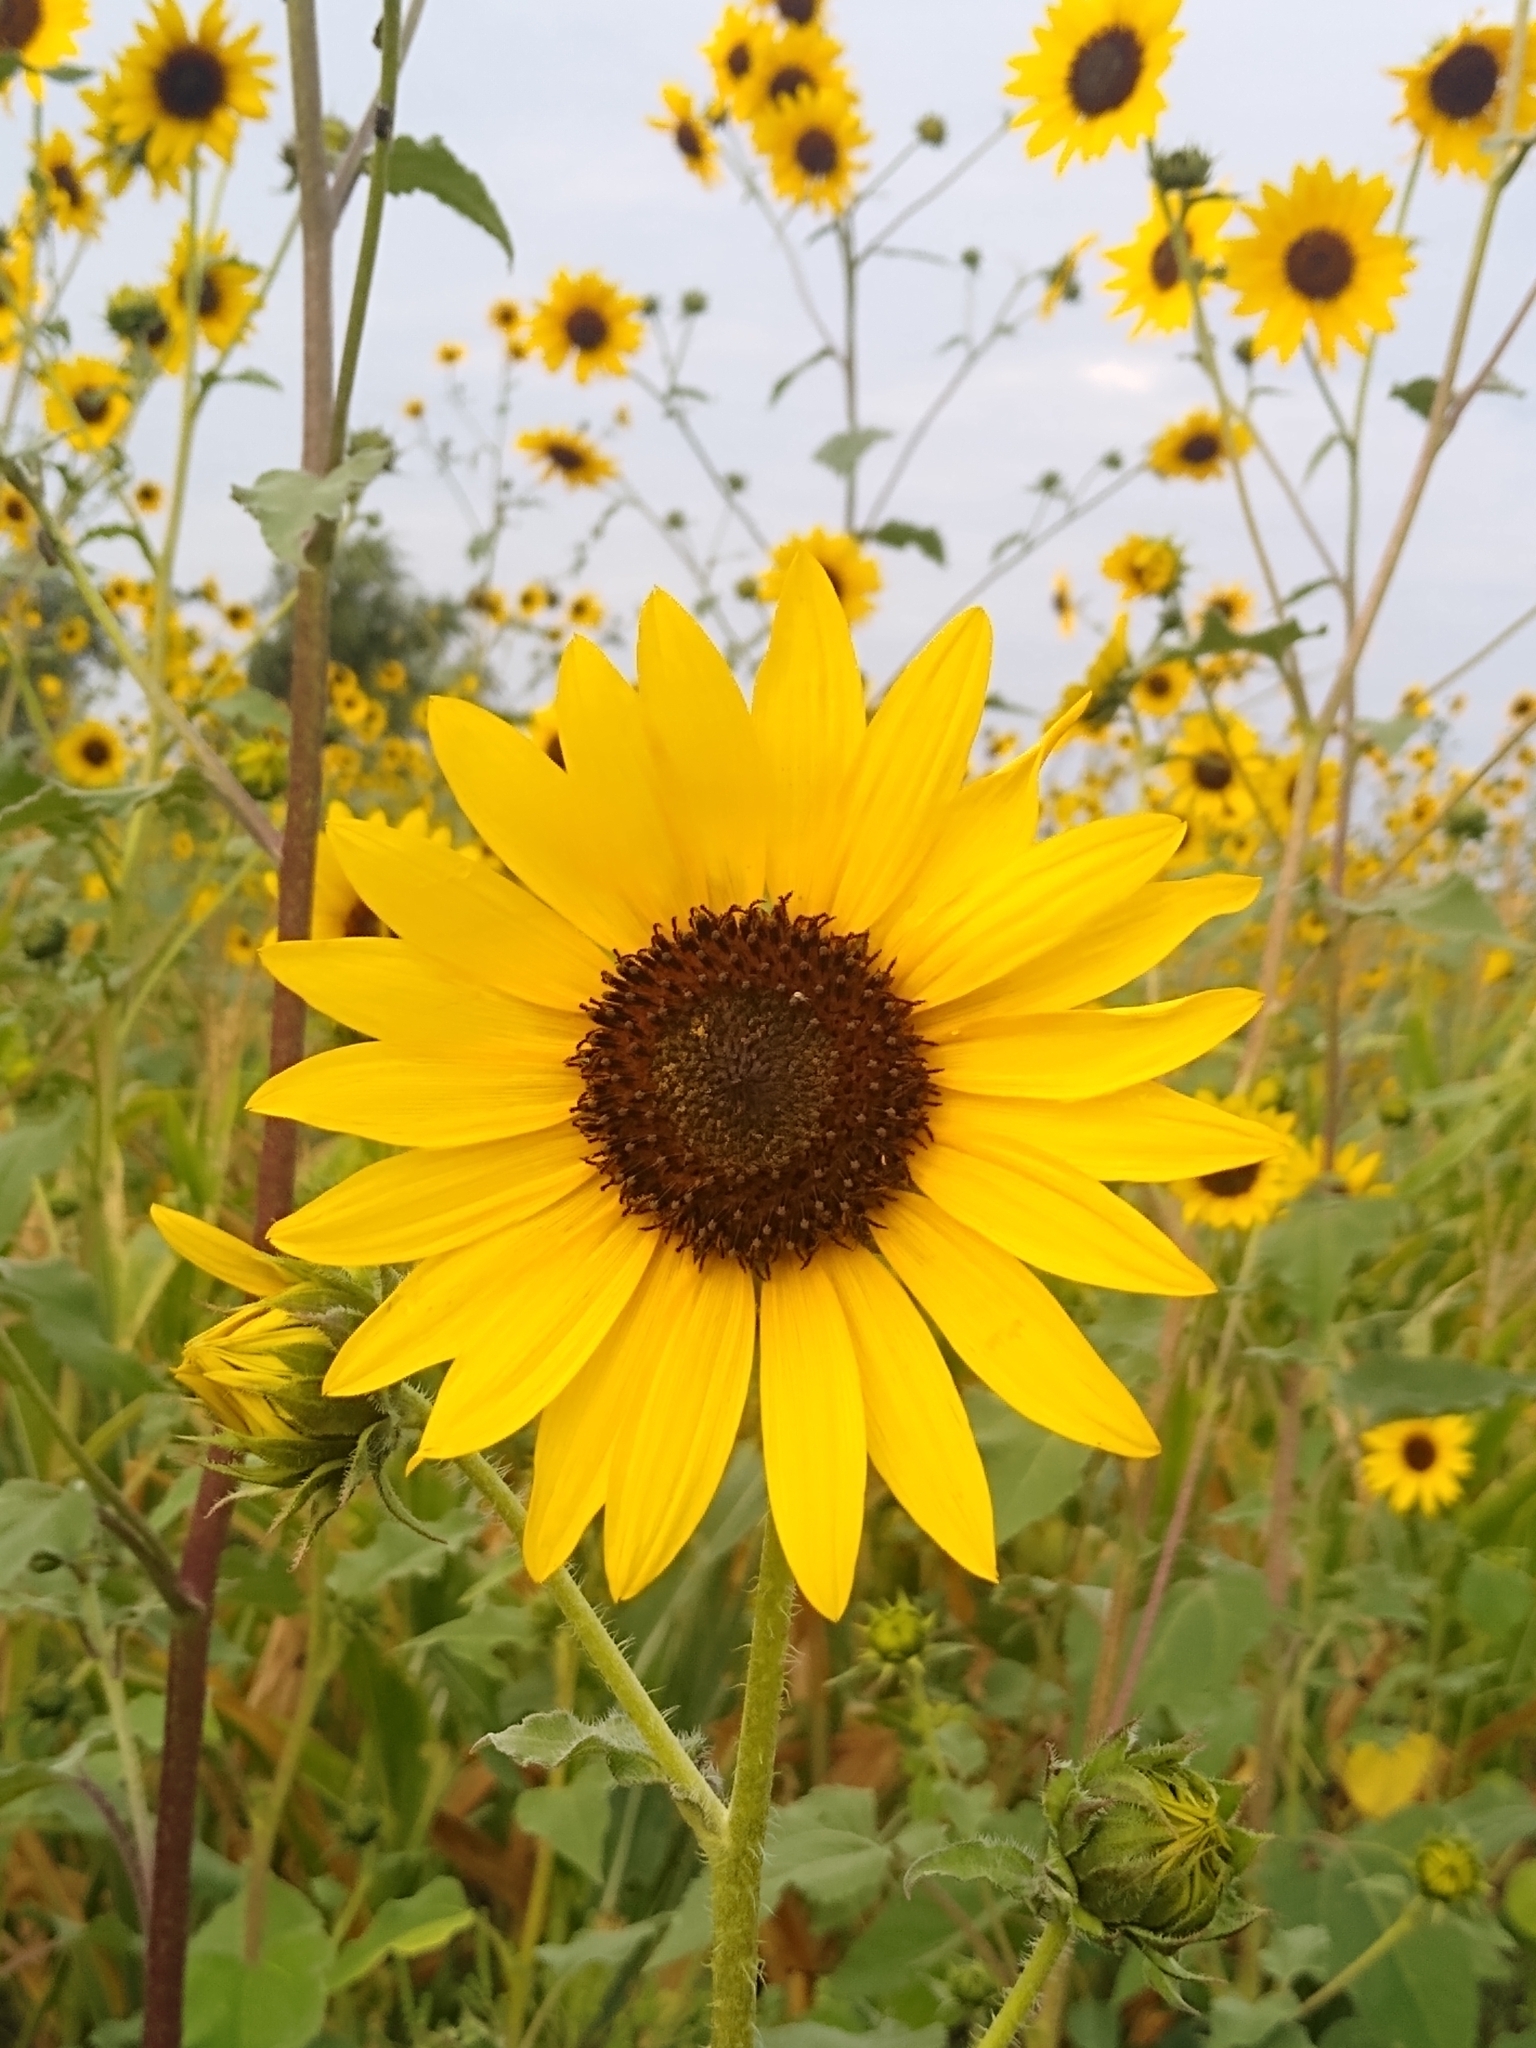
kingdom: Plantae
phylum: Tracheophyta
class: Magnoliopsida
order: Asterales
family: Asteraceae
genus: Helianthus
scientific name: Helianthus annuus
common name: Sunflower
